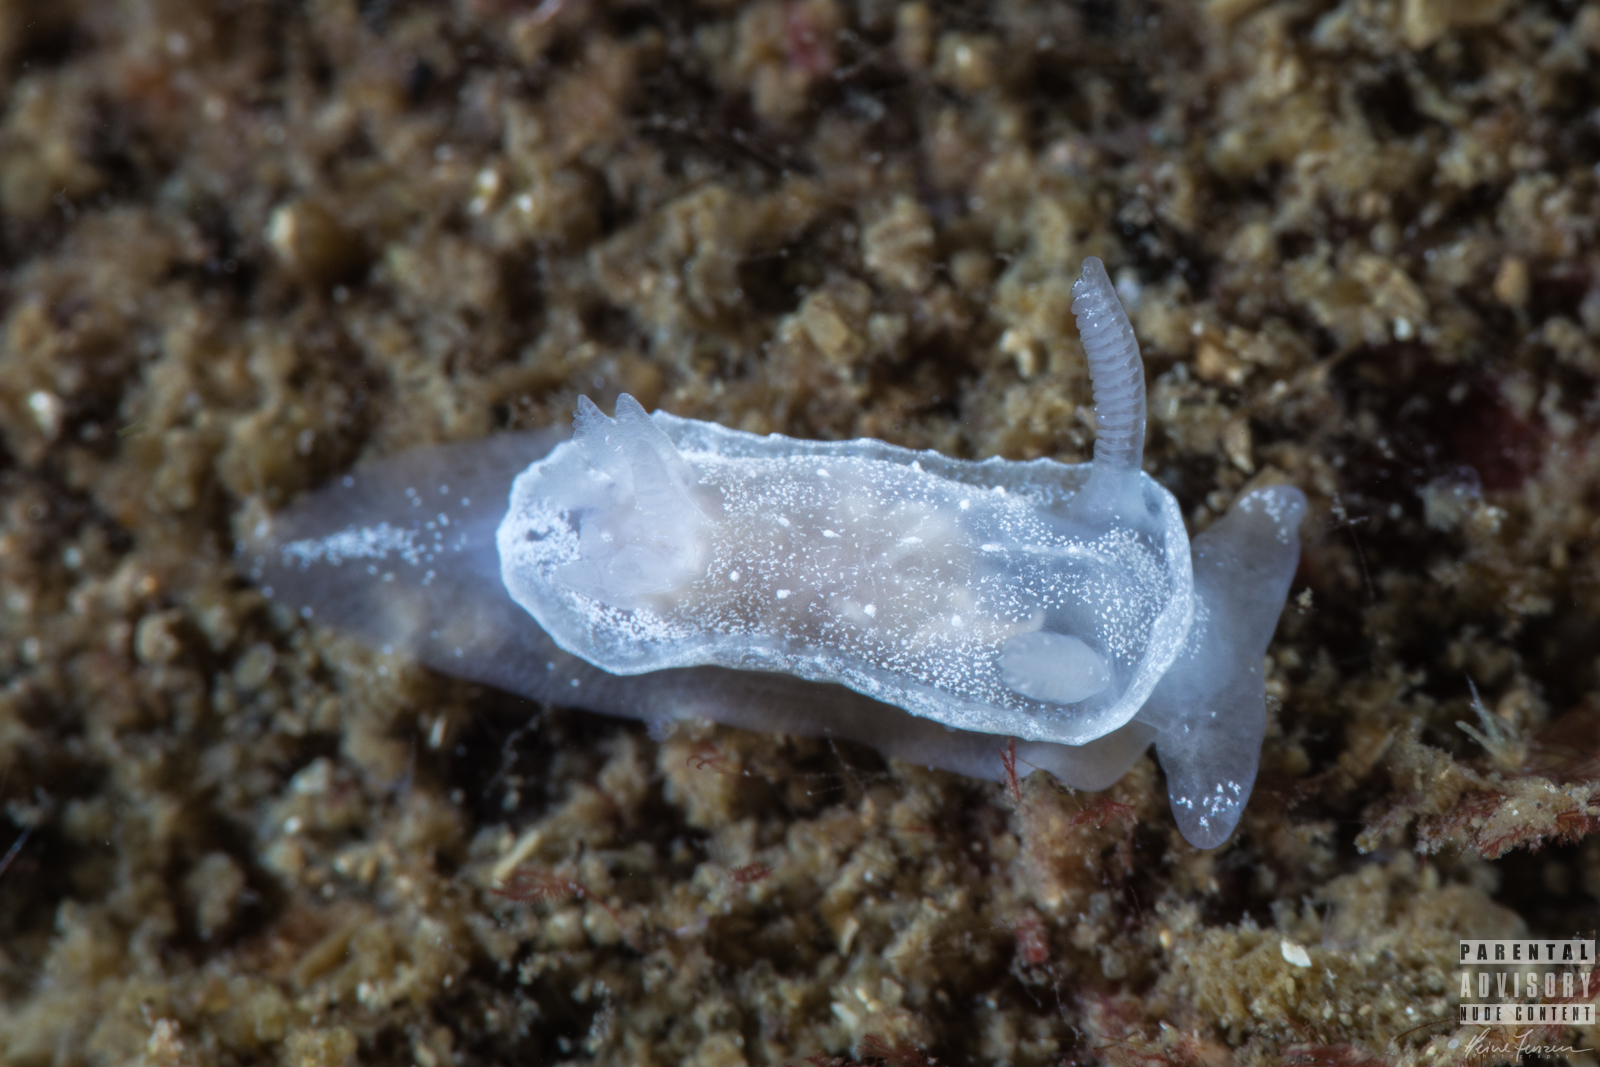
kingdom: Animalia
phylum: Mollusca
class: Gastropoda
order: Nudibranchia
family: Goniodorididae
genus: Okenia
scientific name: Okenia
